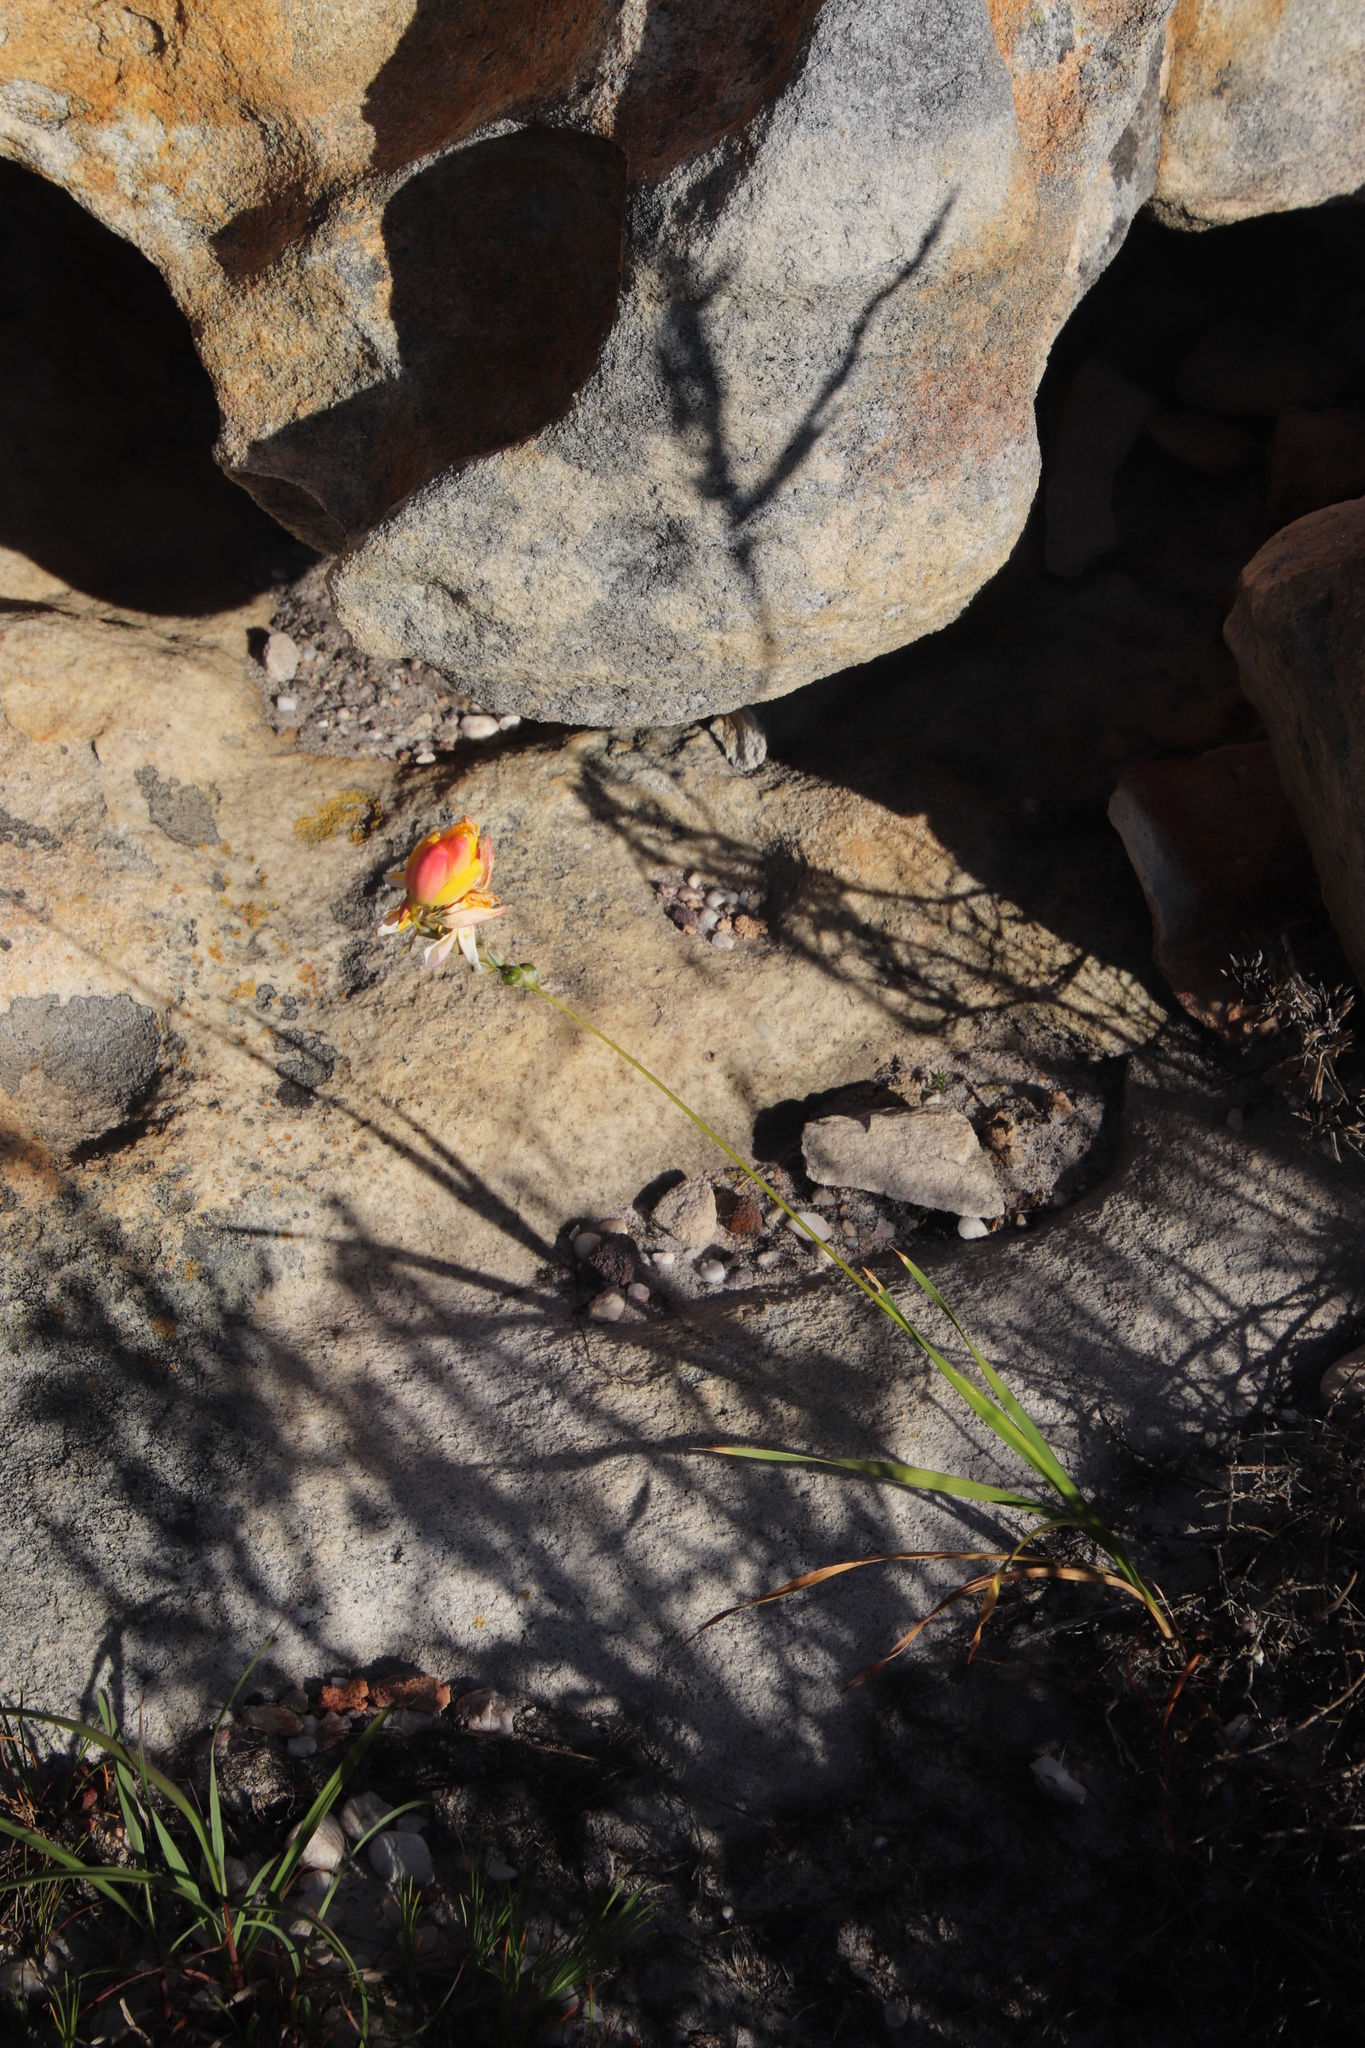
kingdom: Plantae
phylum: Tracheophyta
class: Liliopsida
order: Asparagales
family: Iridaceae
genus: Ixia
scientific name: Ixia dubia
